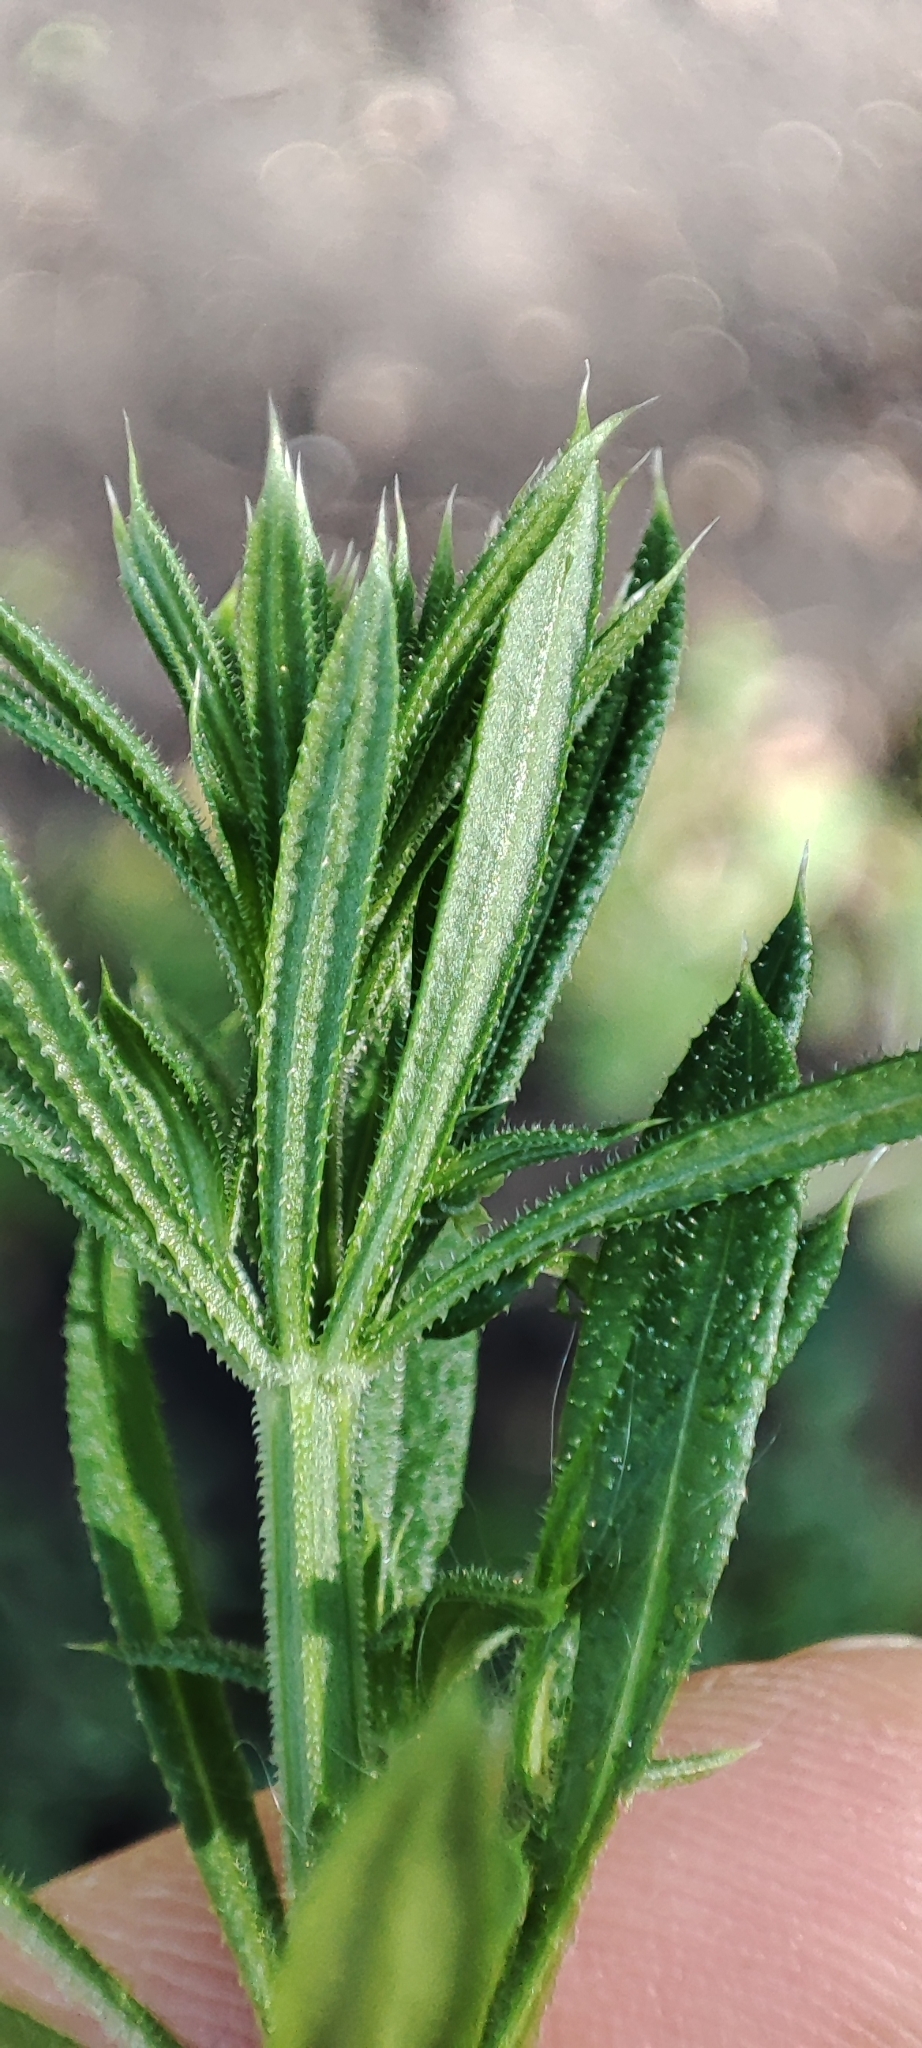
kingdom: Plantae
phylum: Tracheophyta
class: Magnoliopsida
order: Gentianales
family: Rubiaceae
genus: Galium
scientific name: Galium spurium
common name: False cleavers
